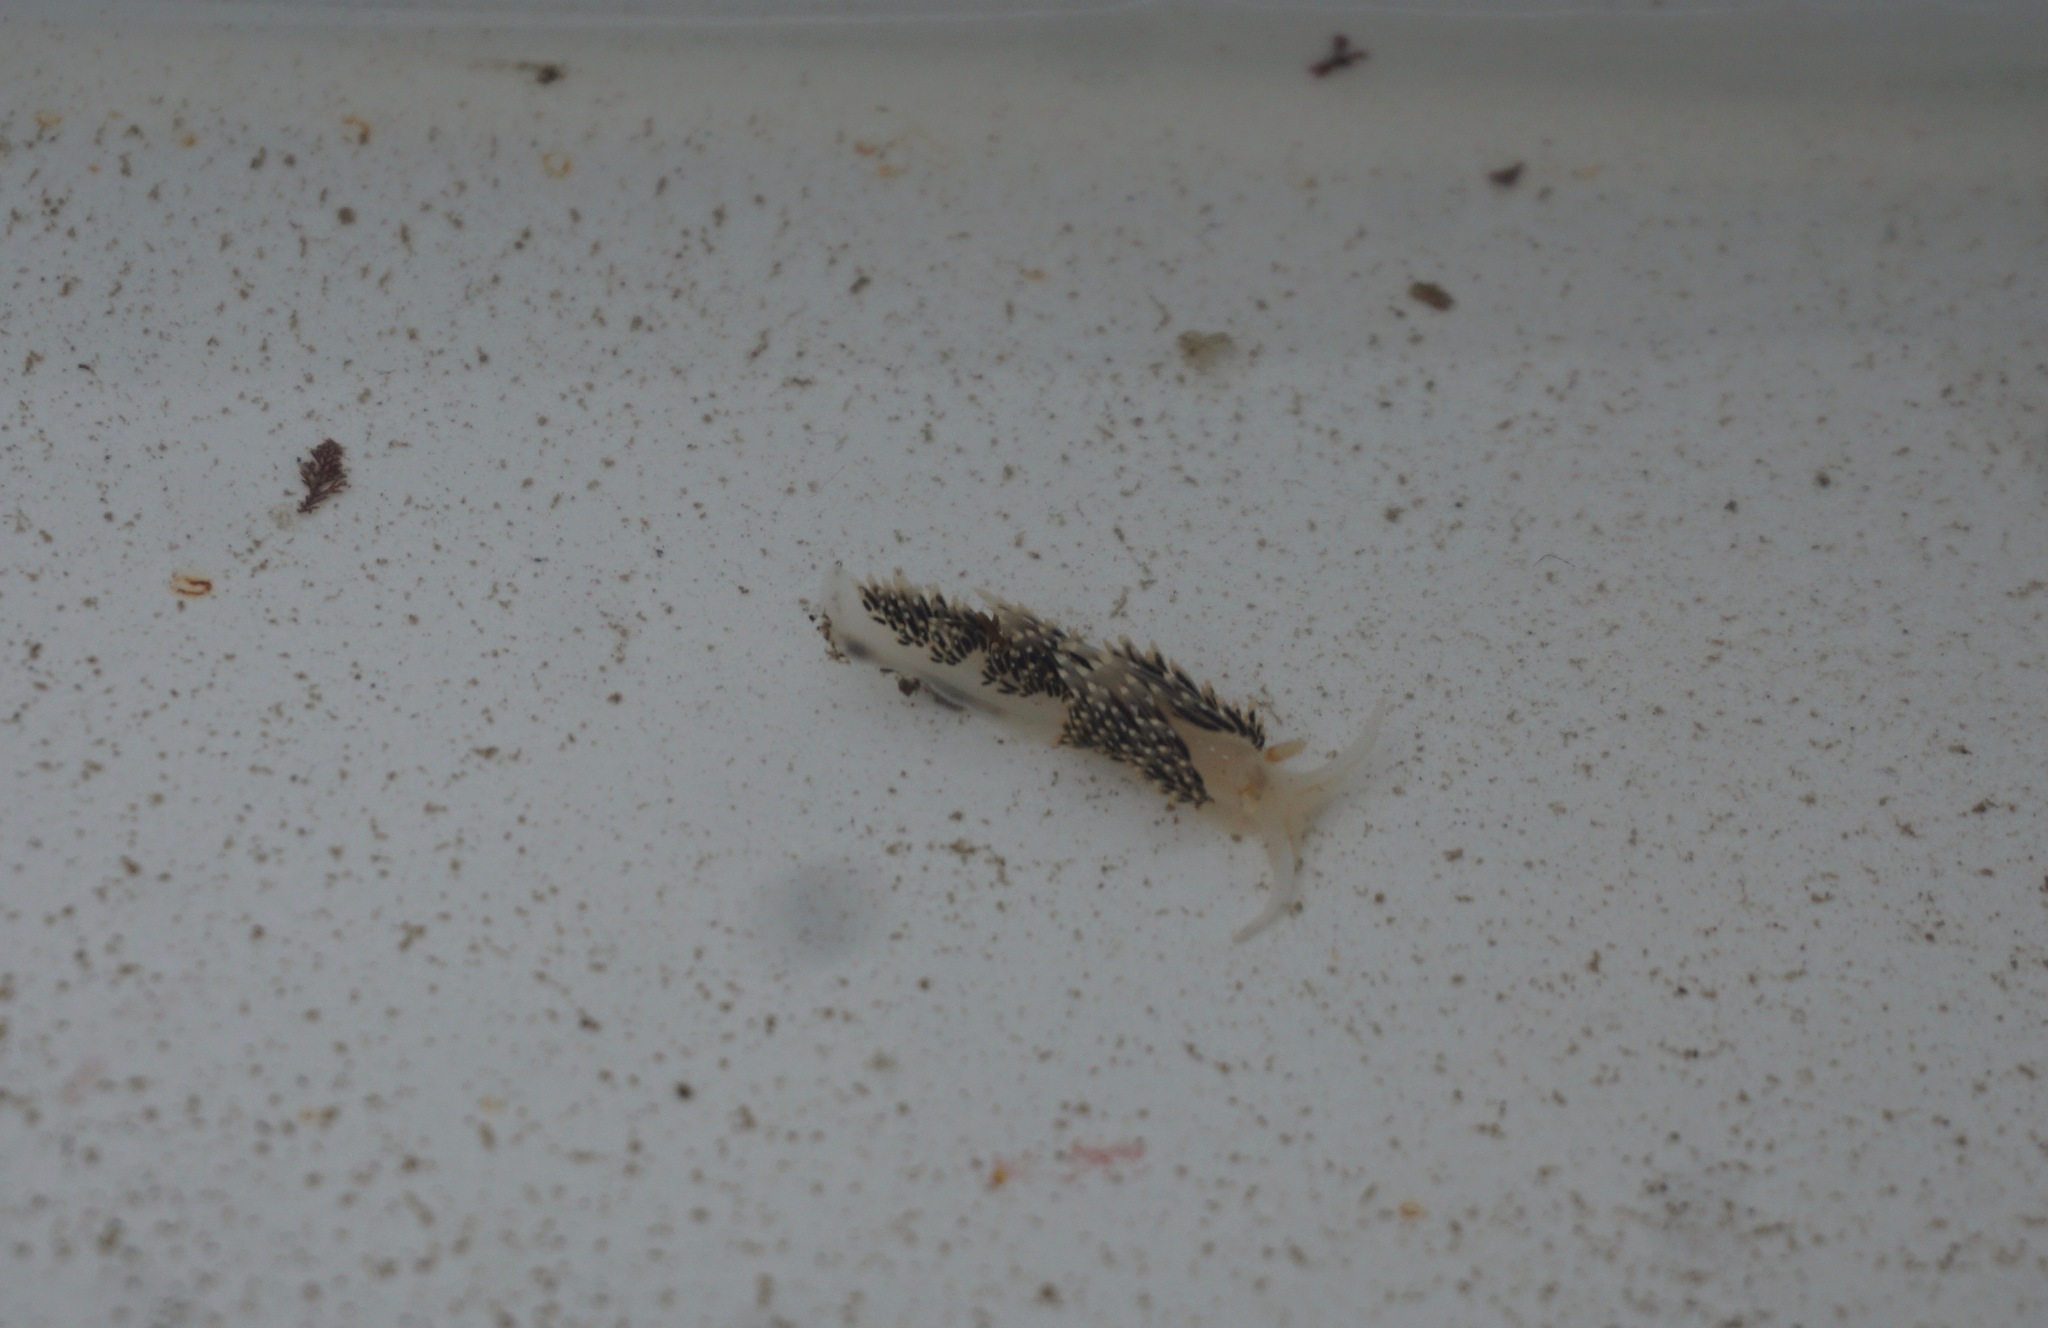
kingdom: Animalia
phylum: Mollusca
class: Gastropoda
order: Nudibranchia
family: Facelinidae
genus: Phidiana
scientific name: Phidiana hiltoni
